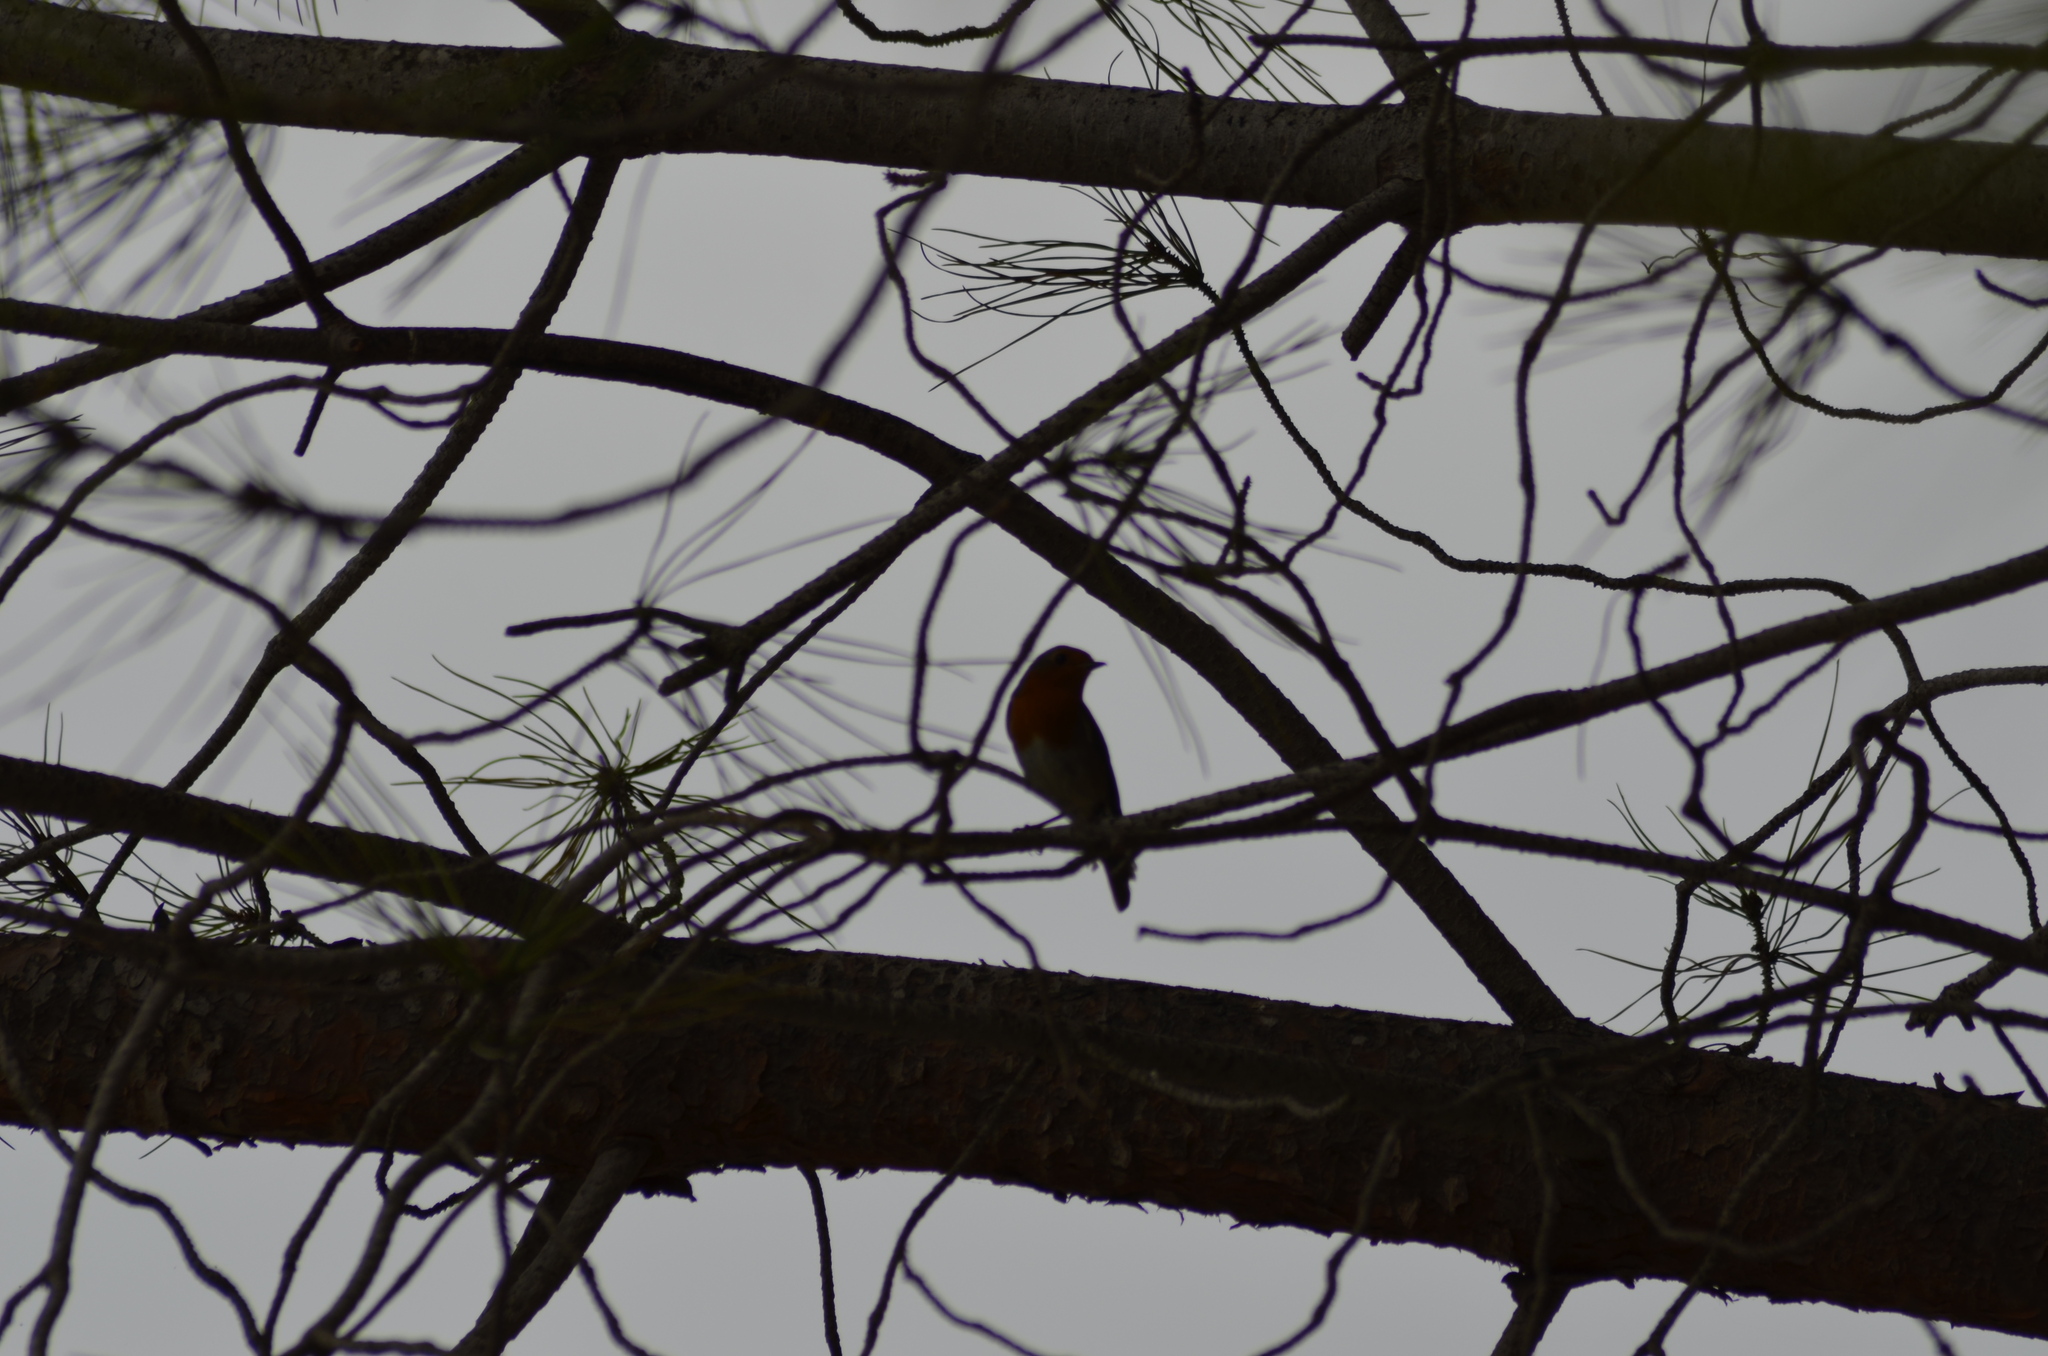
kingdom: Animalia
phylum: Chordata
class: Aves
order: Passeriformes
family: Muscicapidae
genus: Erithacus
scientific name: Erithacus rubecula
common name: European robin
